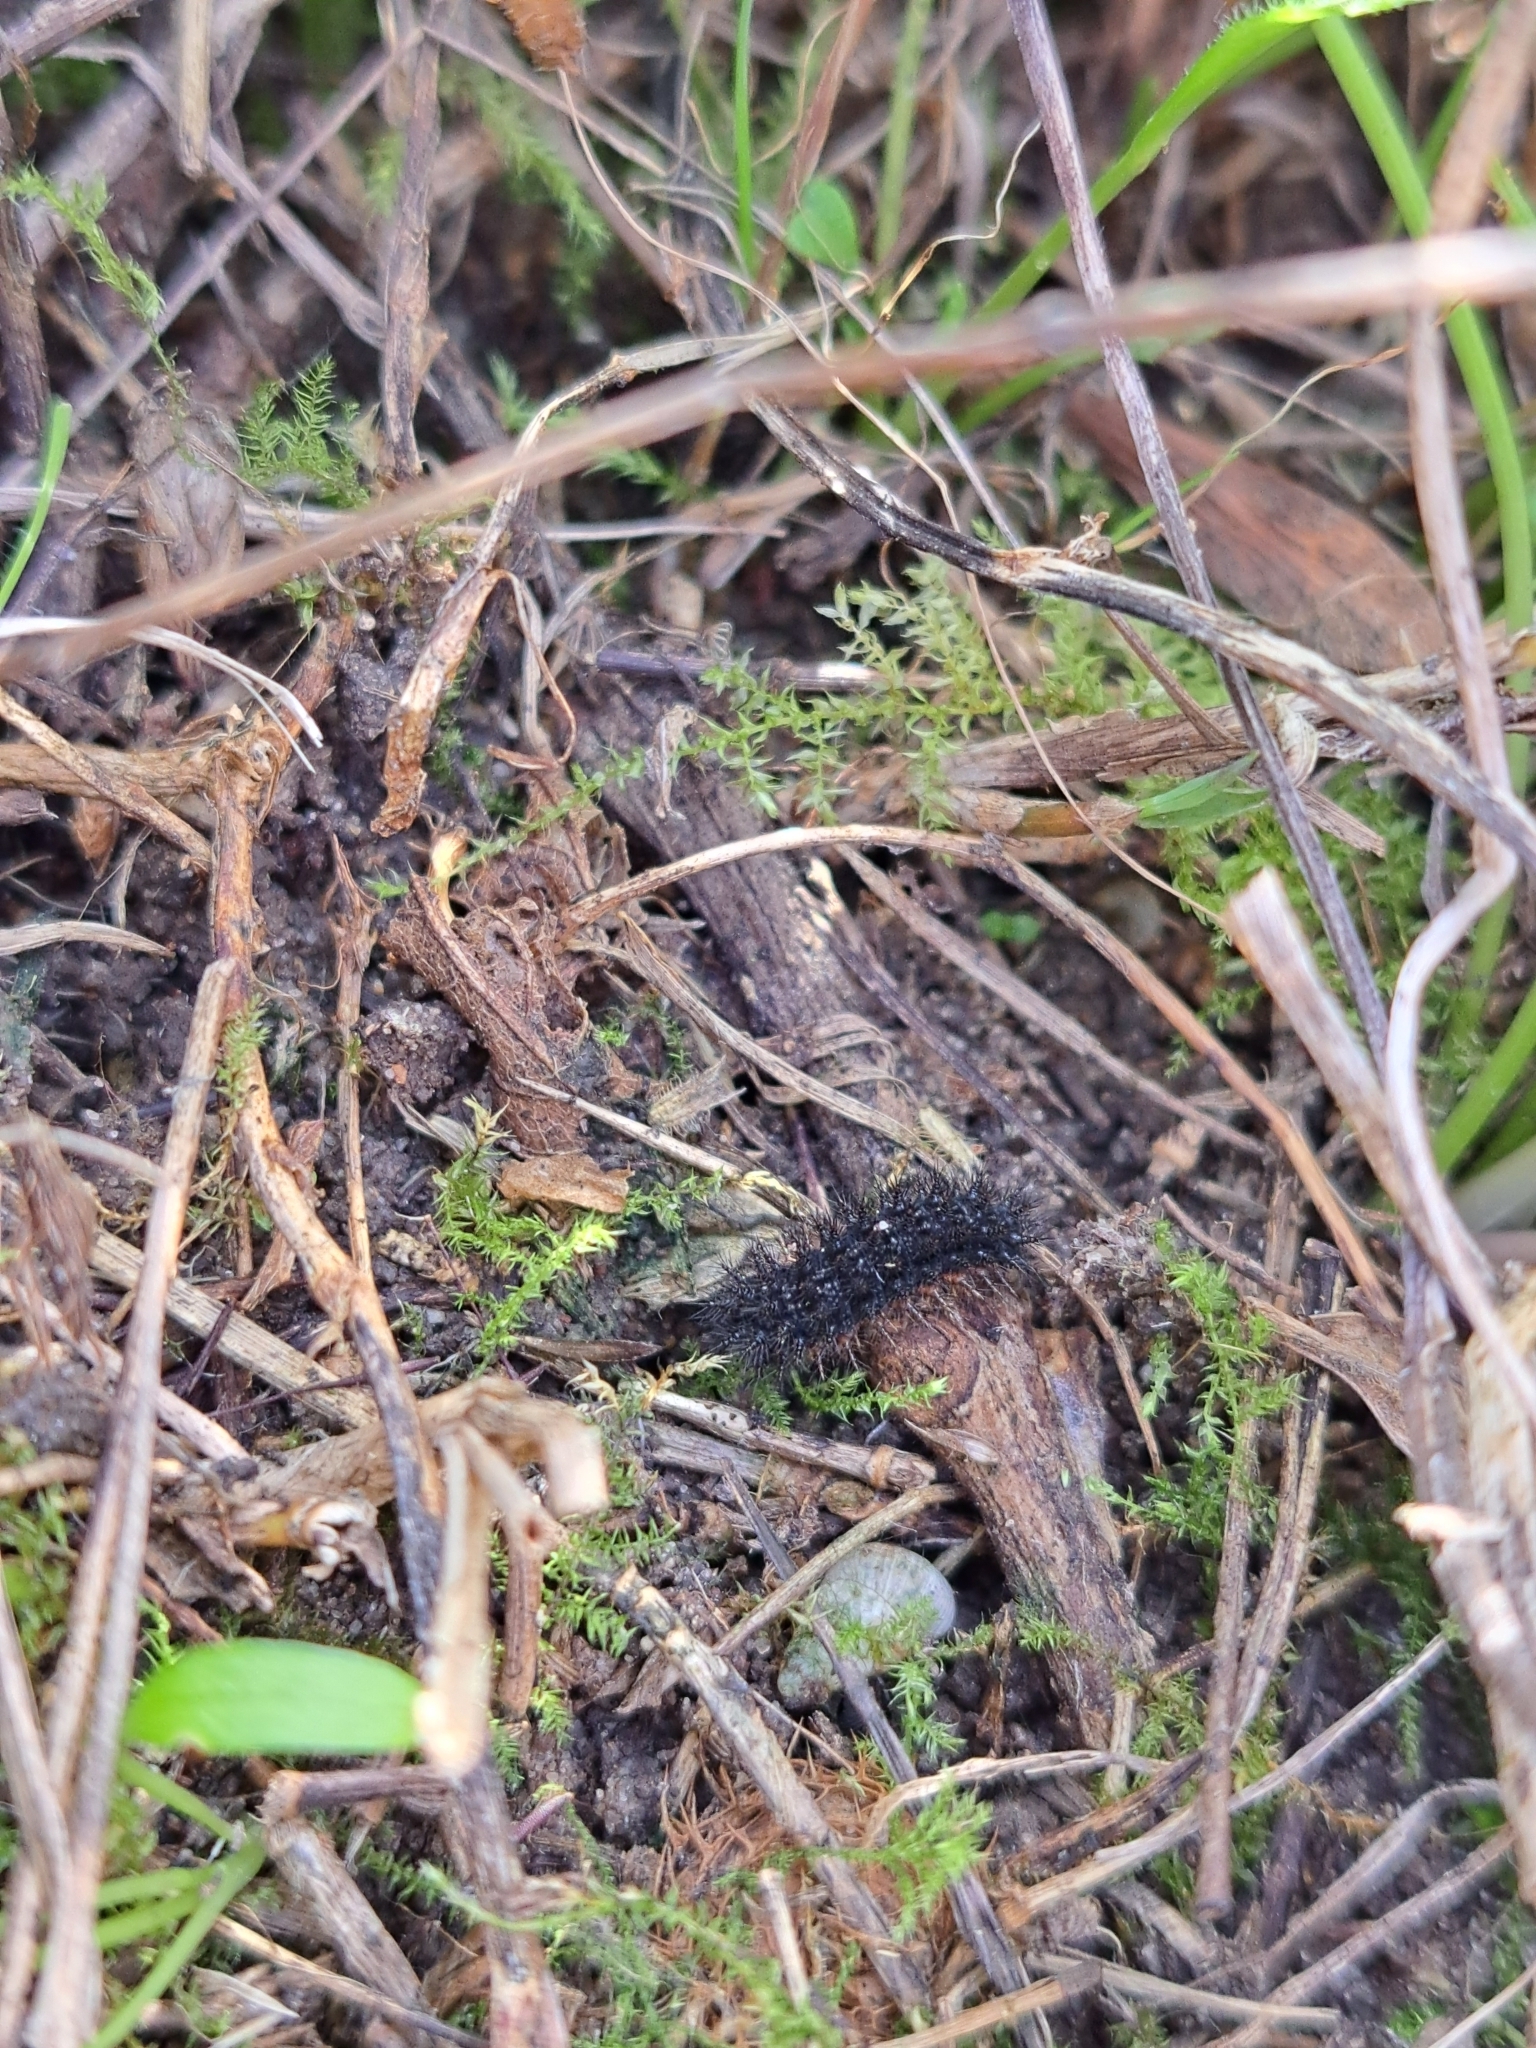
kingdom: Animalia
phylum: Arthropoda
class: Insecta
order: Lepidoptera
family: Nymphalidae
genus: Melitaea
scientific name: Melitaea cinxia
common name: Glanville fritillary
